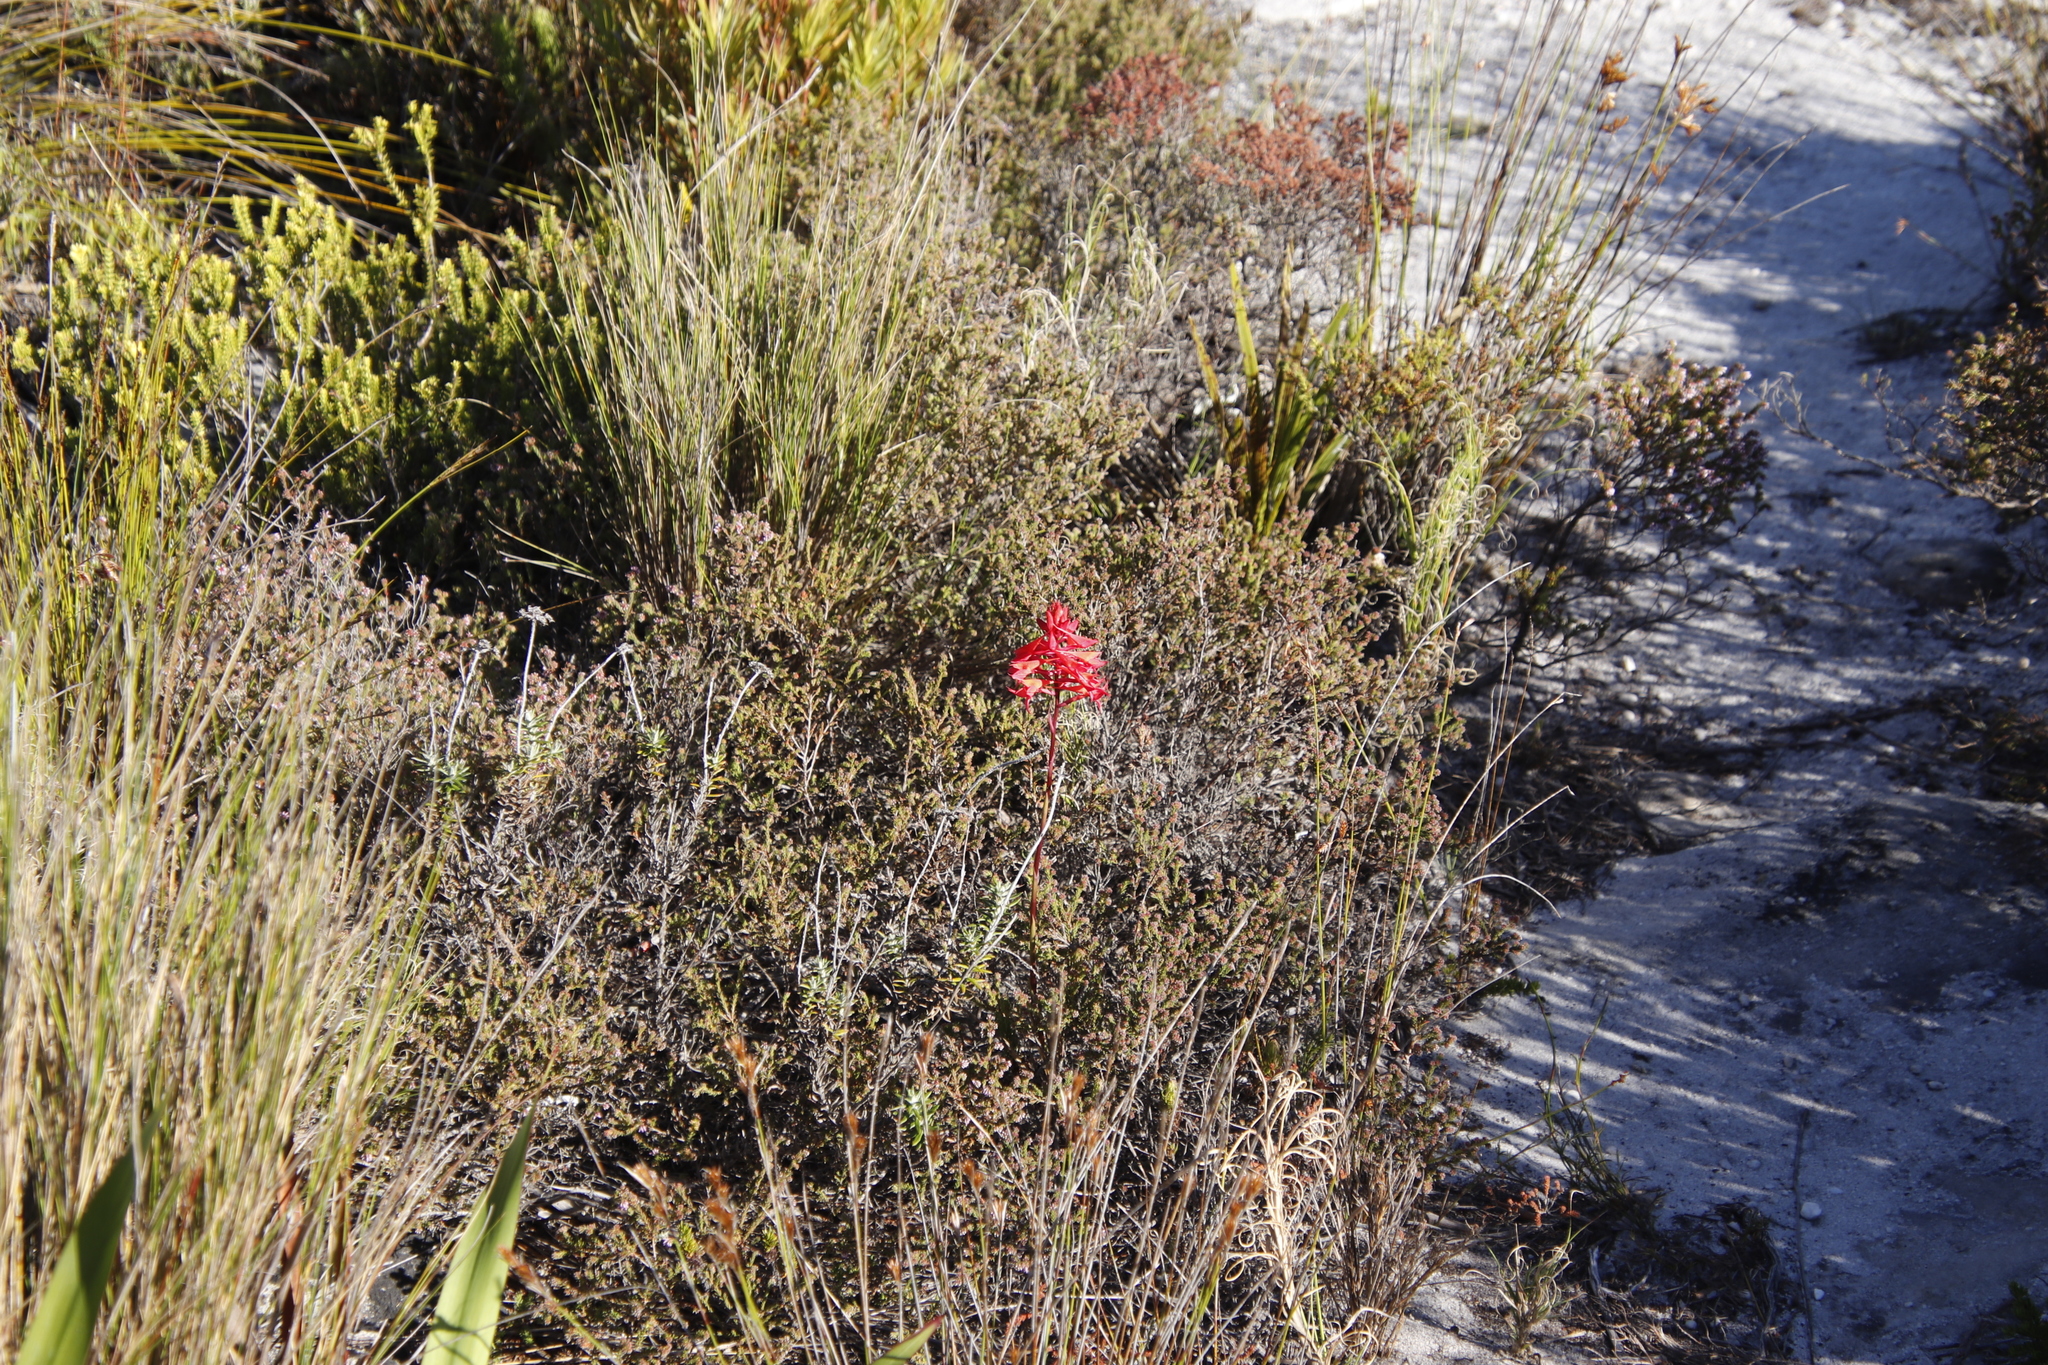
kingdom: Plantae
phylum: Tracheophyta
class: Liliopsida
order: Asparagales
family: Orchidaceae
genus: Disa
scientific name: Disa ferruginea
